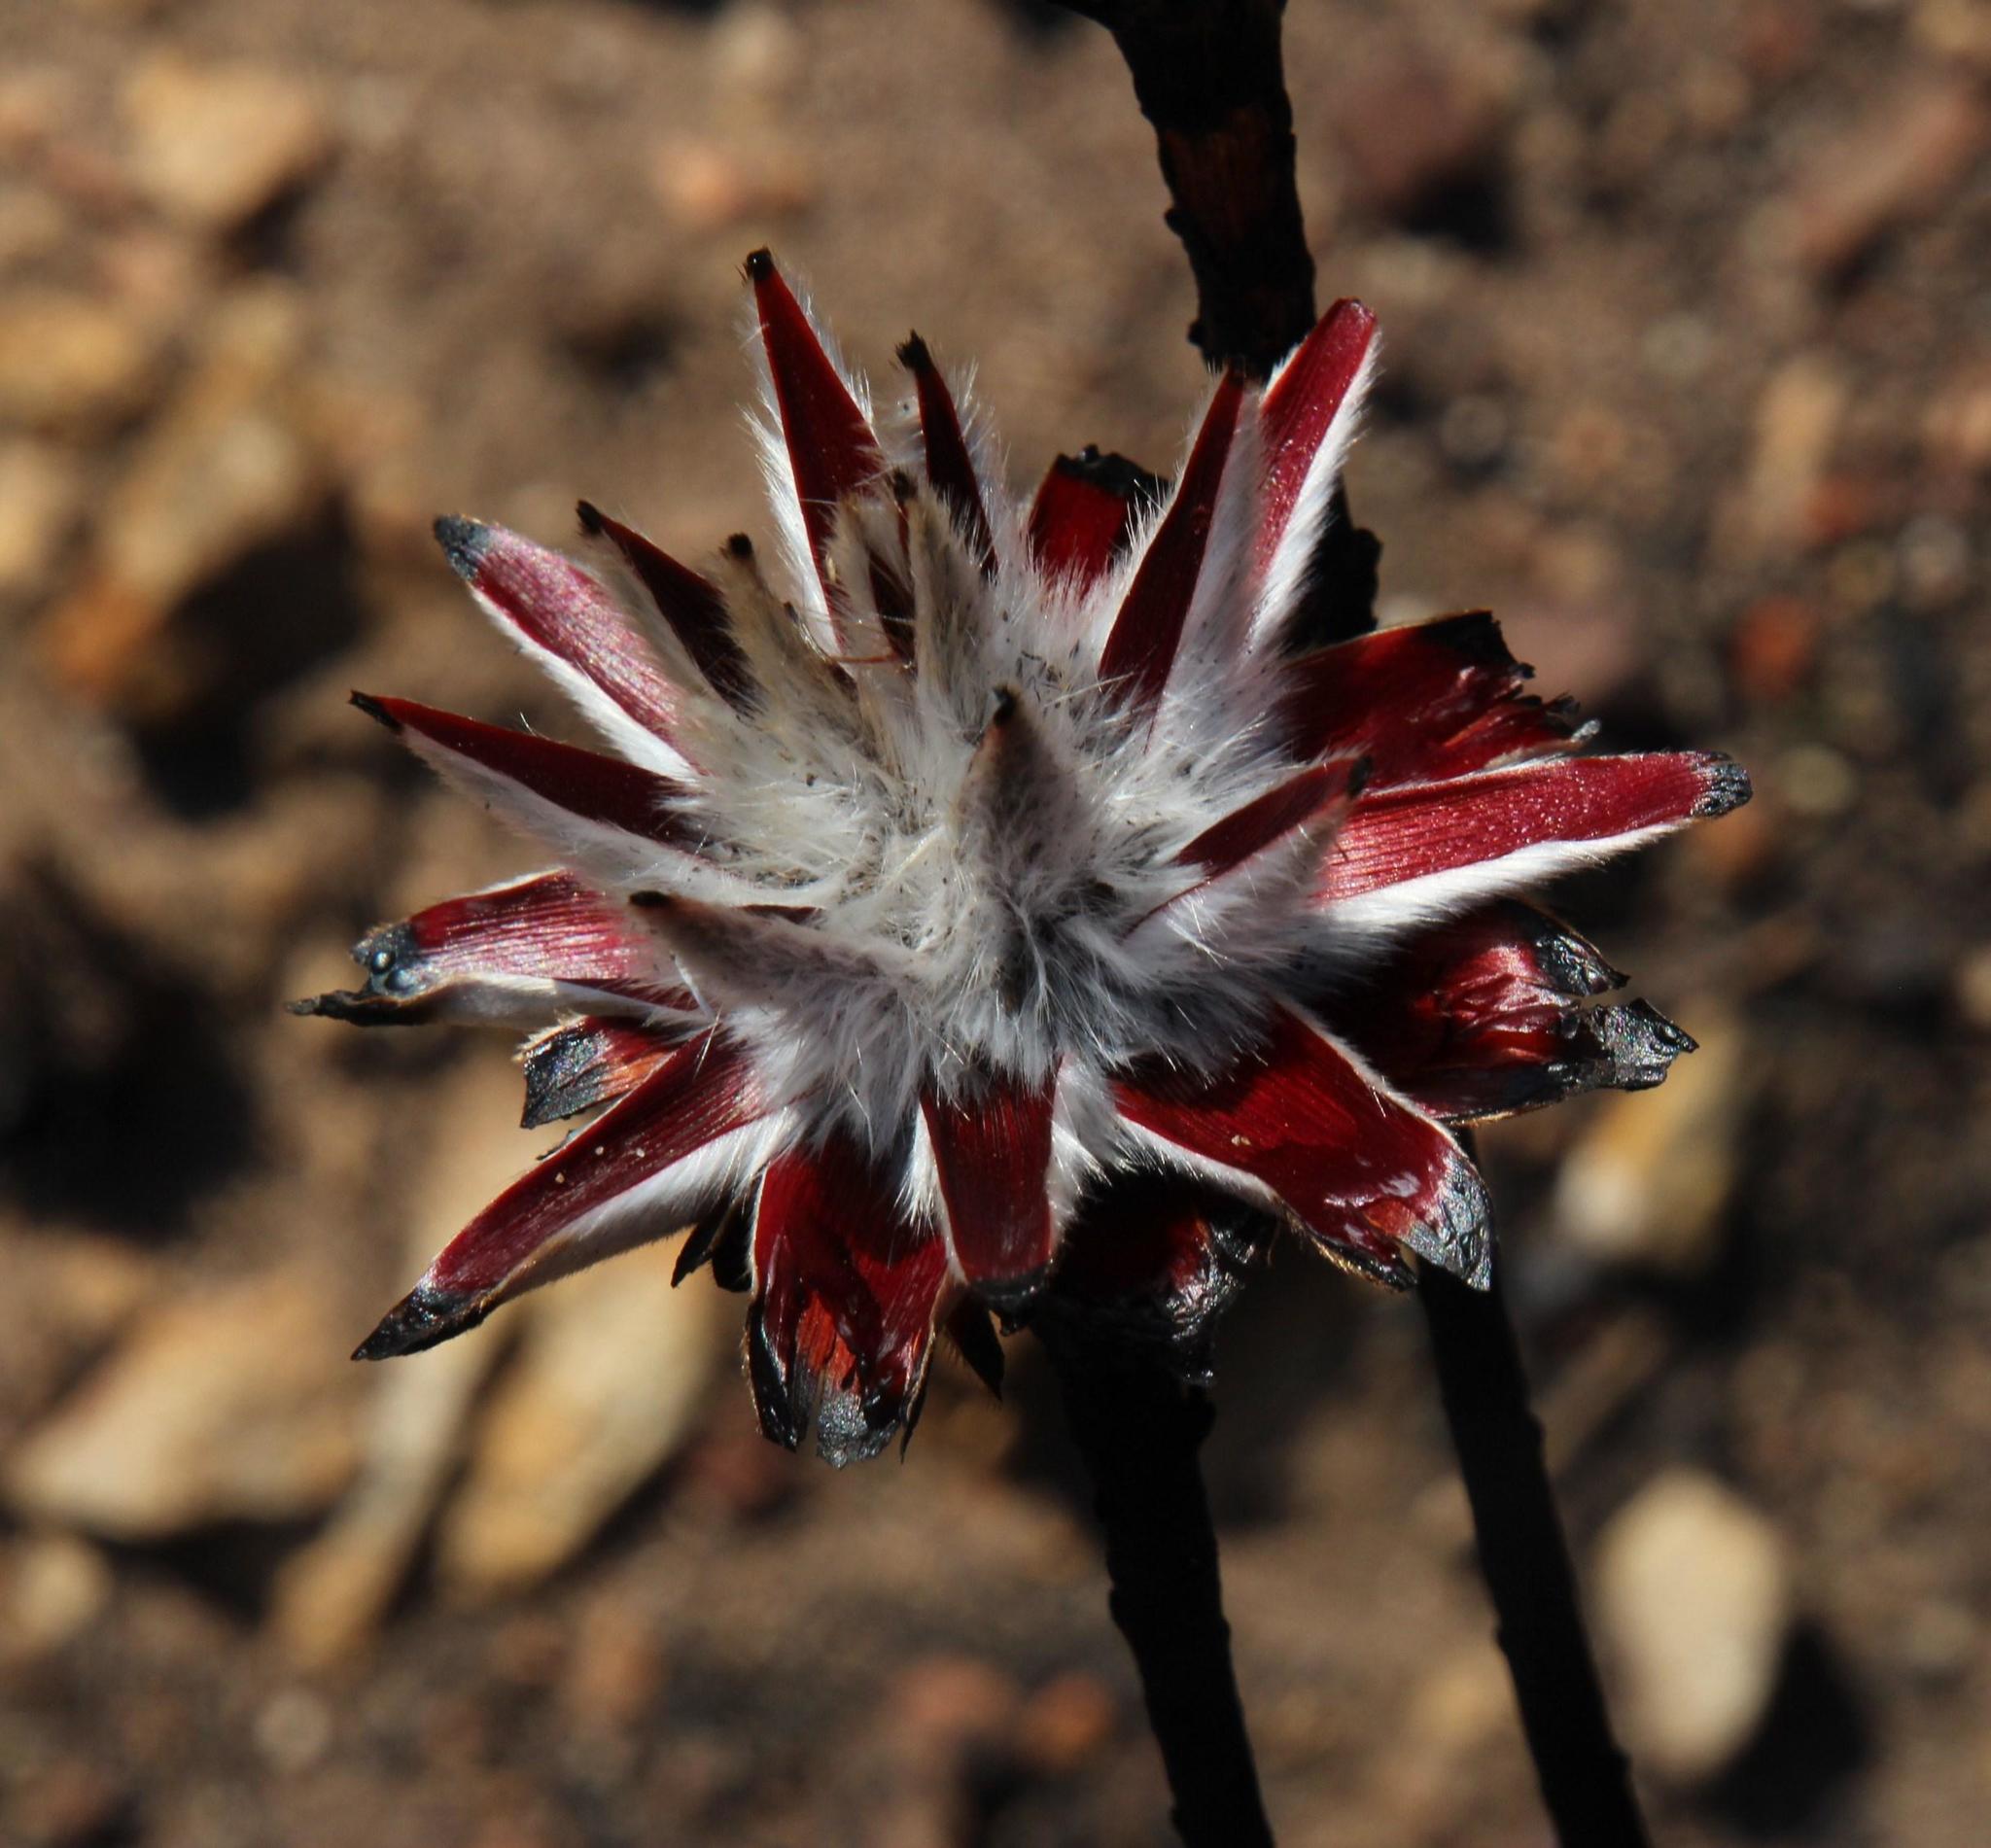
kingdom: Plantae
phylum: Tracheophyta
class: Magnoliopsida
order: Proteales
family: Proteaceae
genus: Leucadendron
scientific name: Leucadendron rubrum
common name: Spinning top
